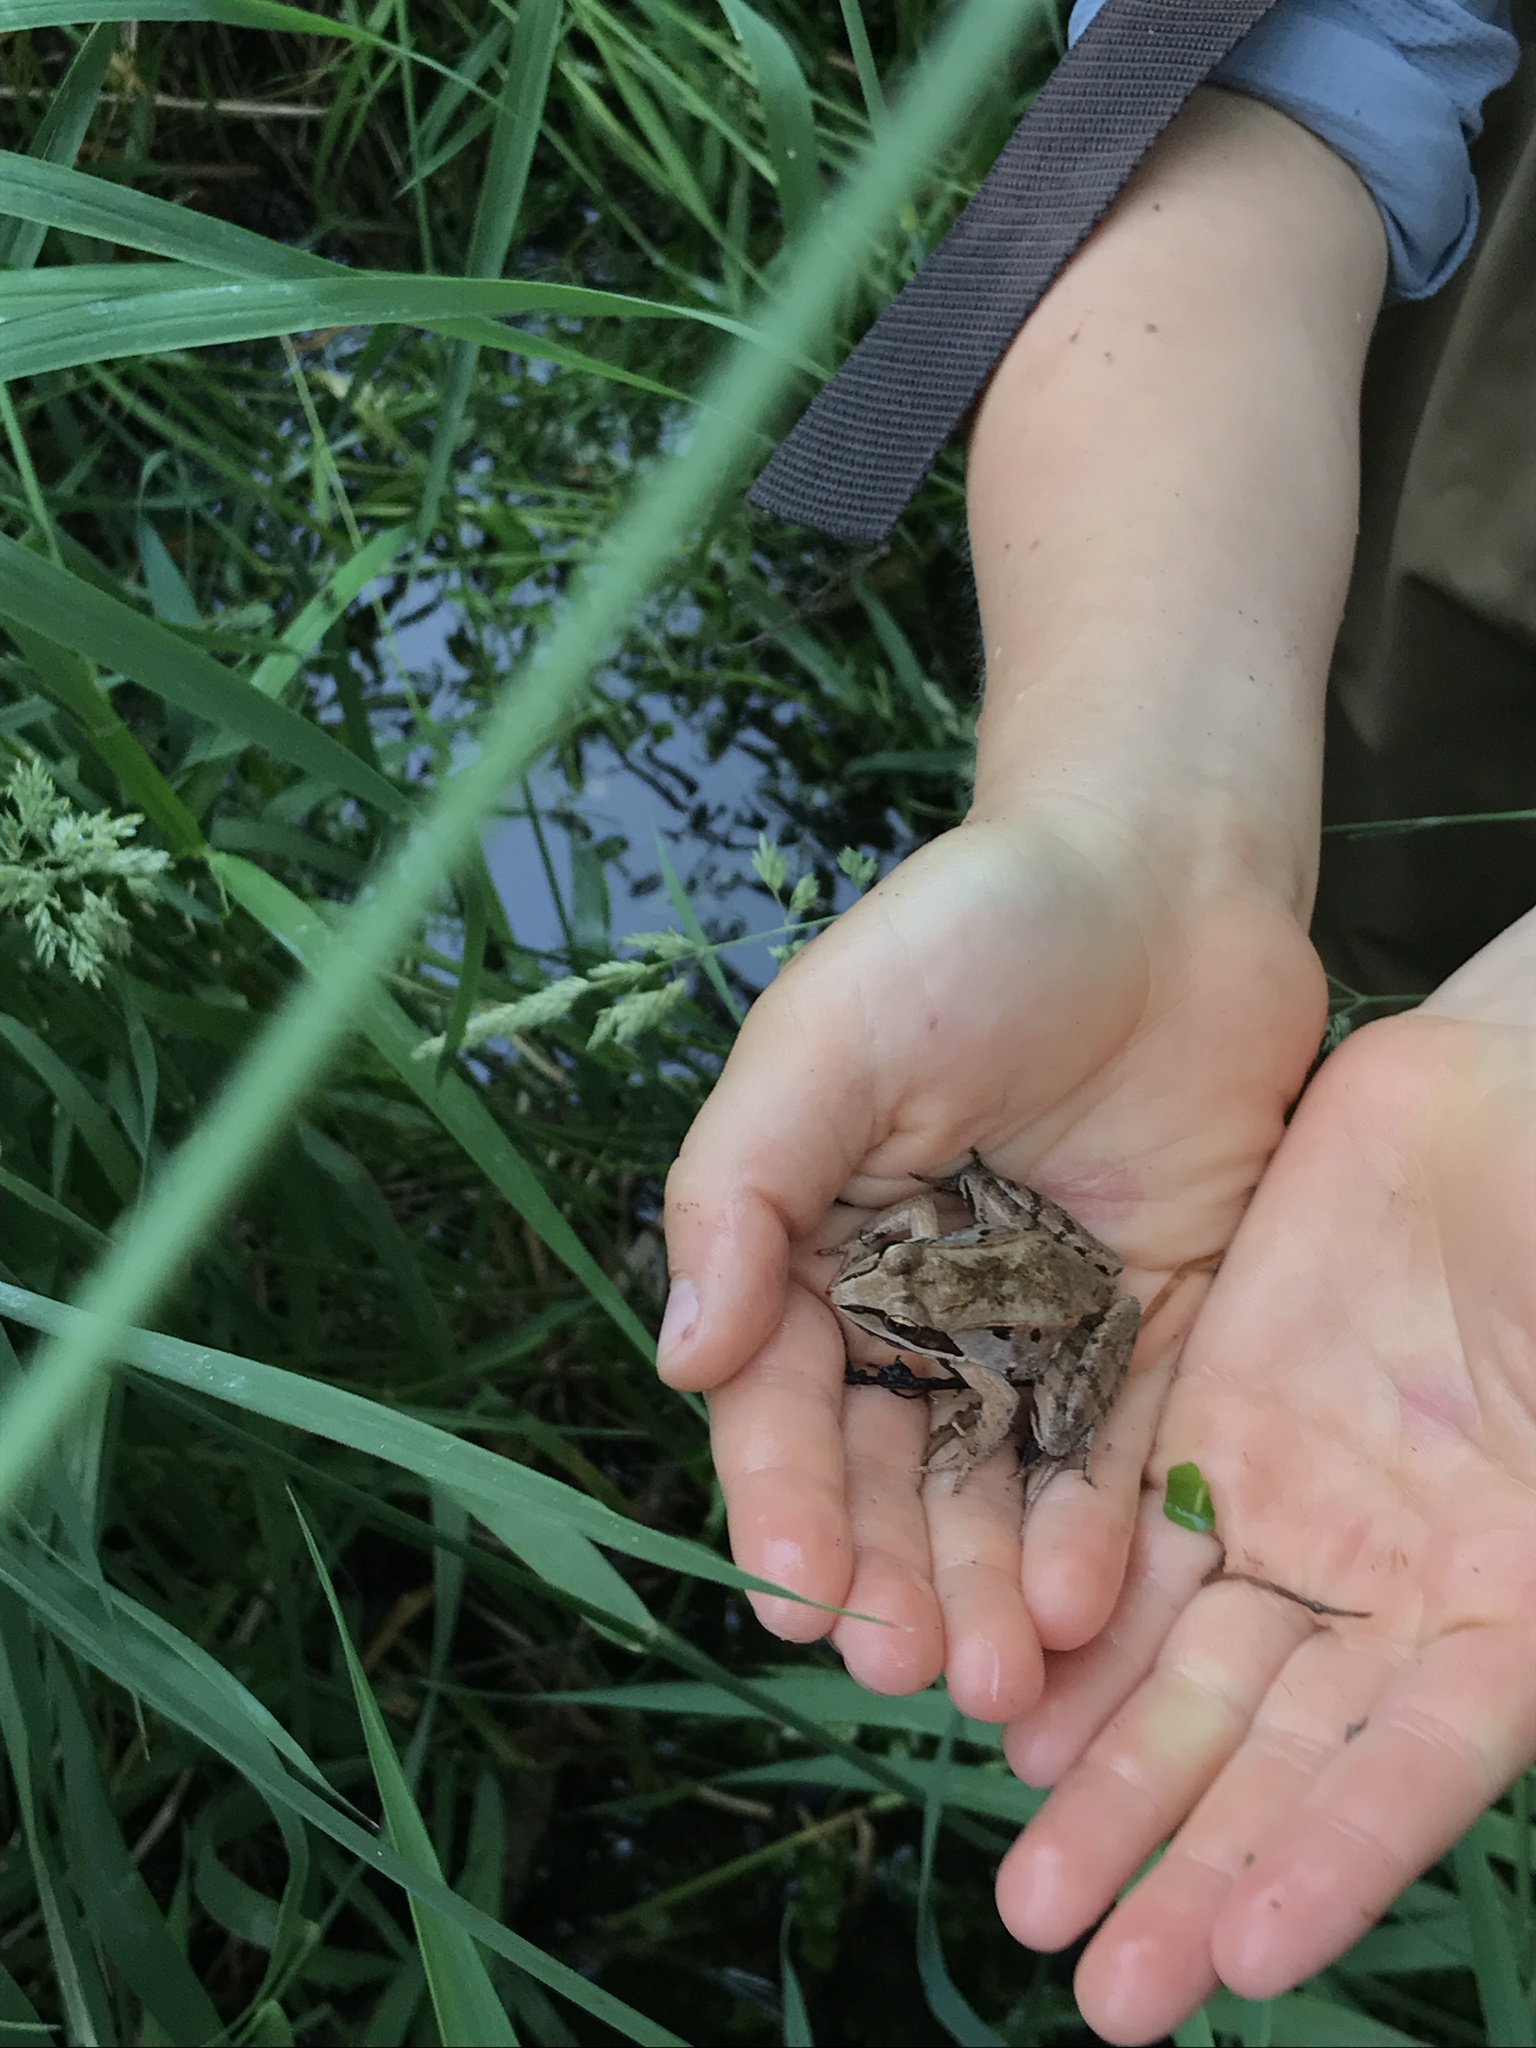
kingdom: Animalia
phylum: Chordata
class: Amphibia
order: Anura
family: Ranidae
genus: Lithobates
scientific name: Lithobates sylvaticus
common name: Wood frog
